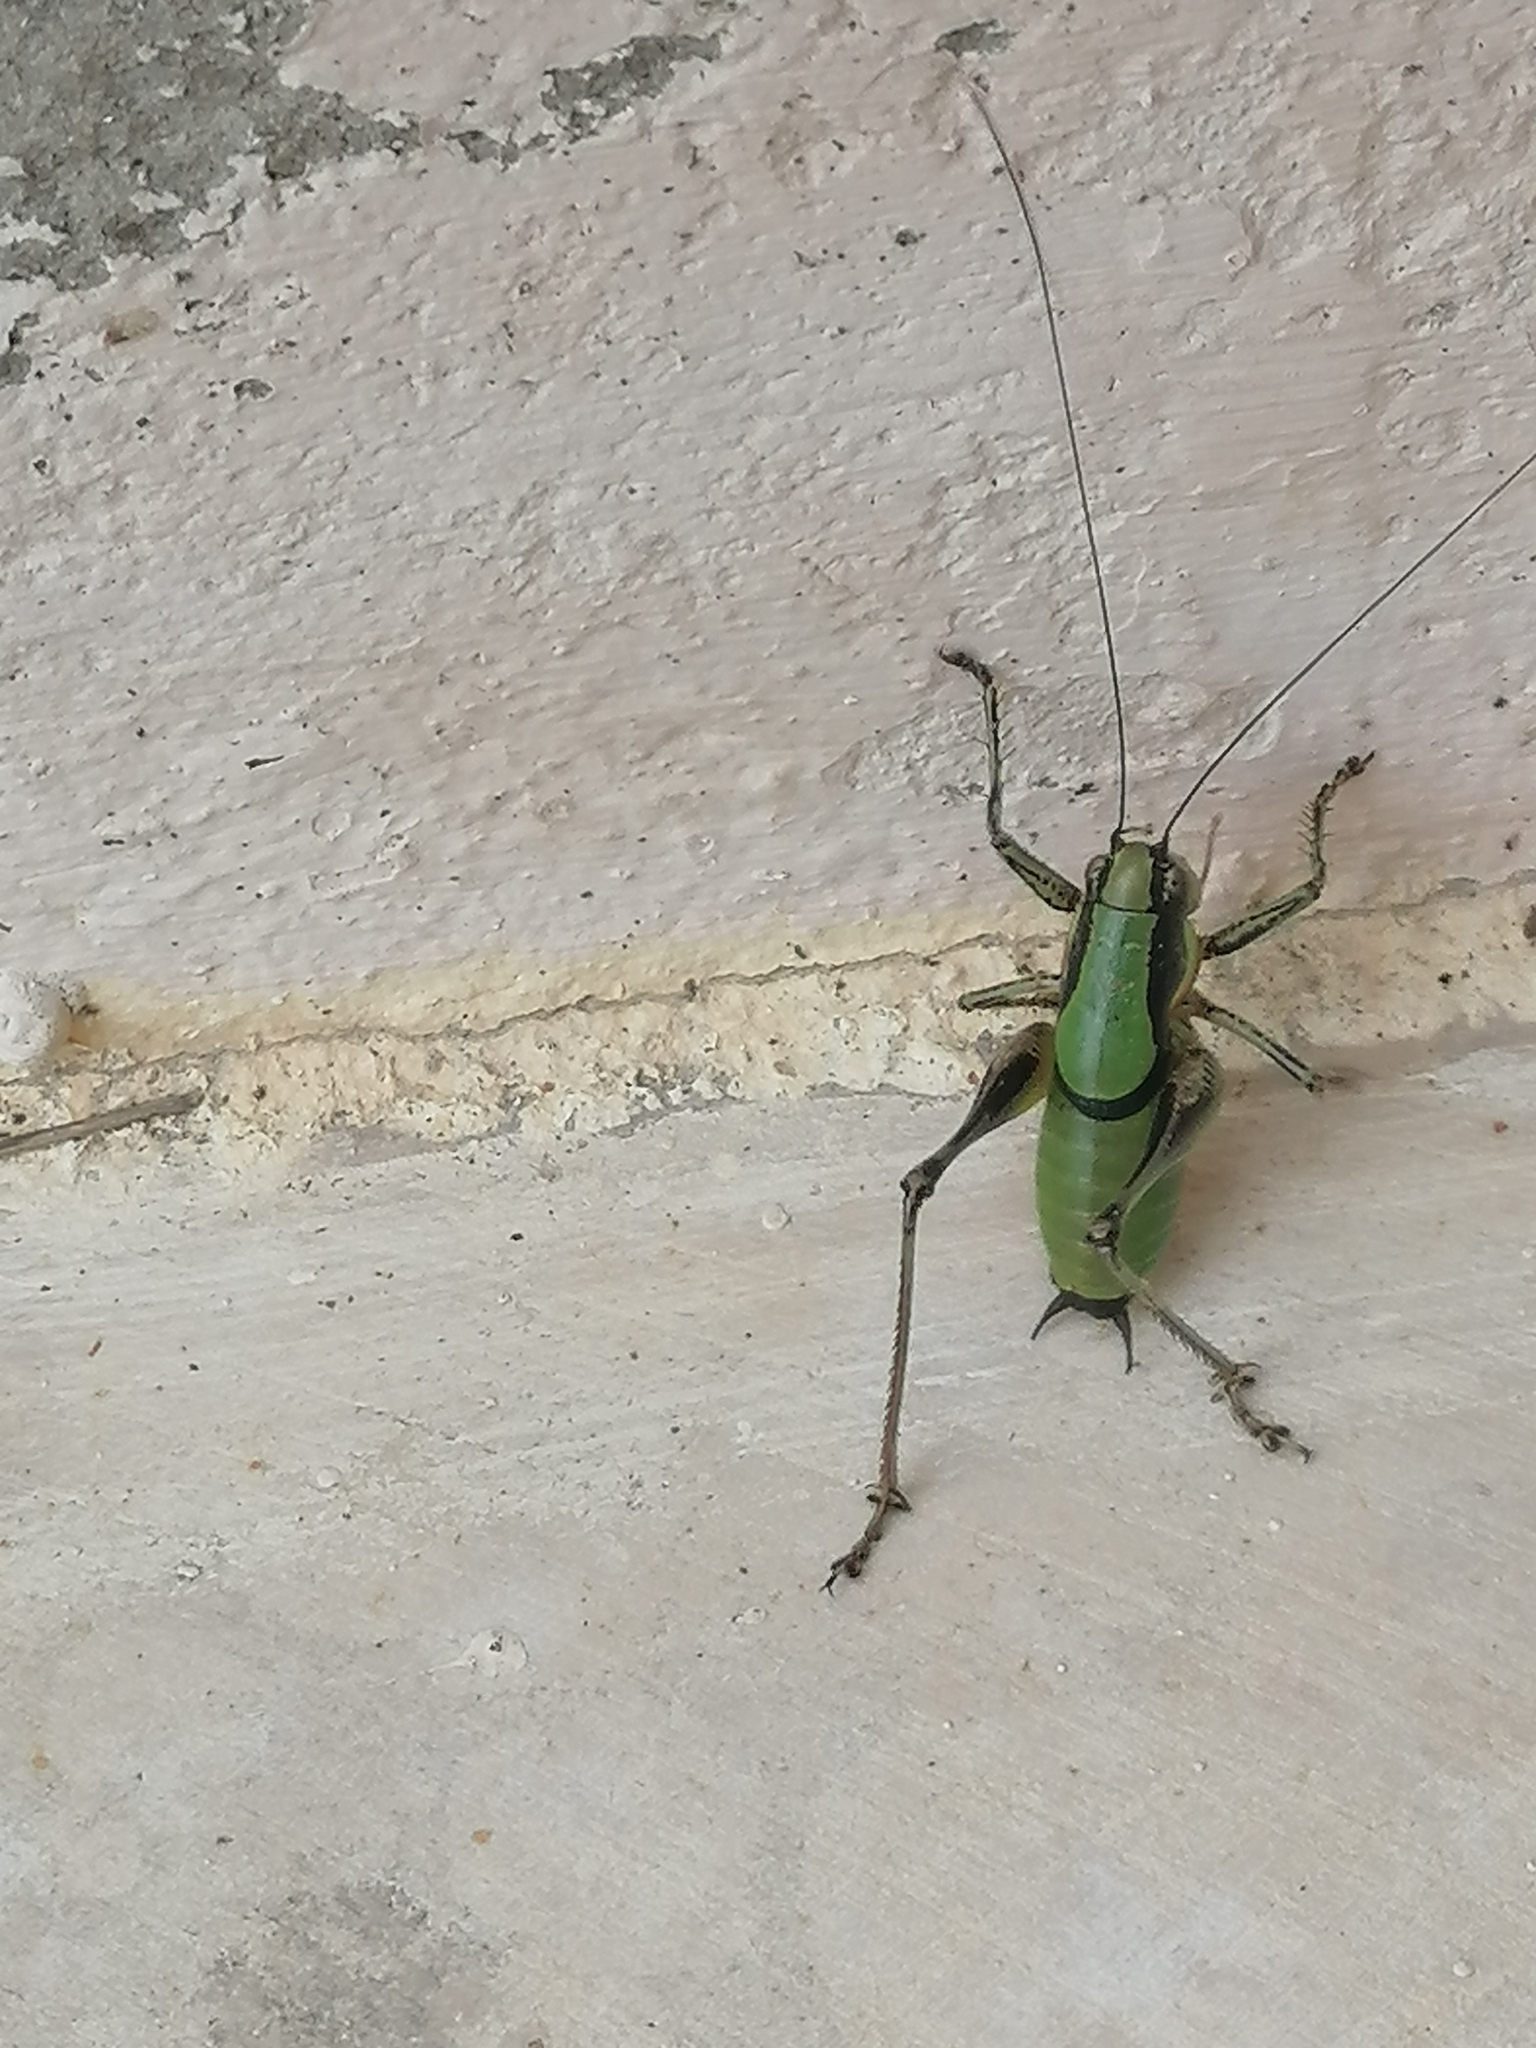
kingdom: Animalia
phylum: Arthropoda
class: Insecta
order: Orthoptera
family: Tettigoniidae
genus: Eupholidoptera
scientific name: Eupholidoptera schmidti
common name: Schmidt's marbled bush-cricket
